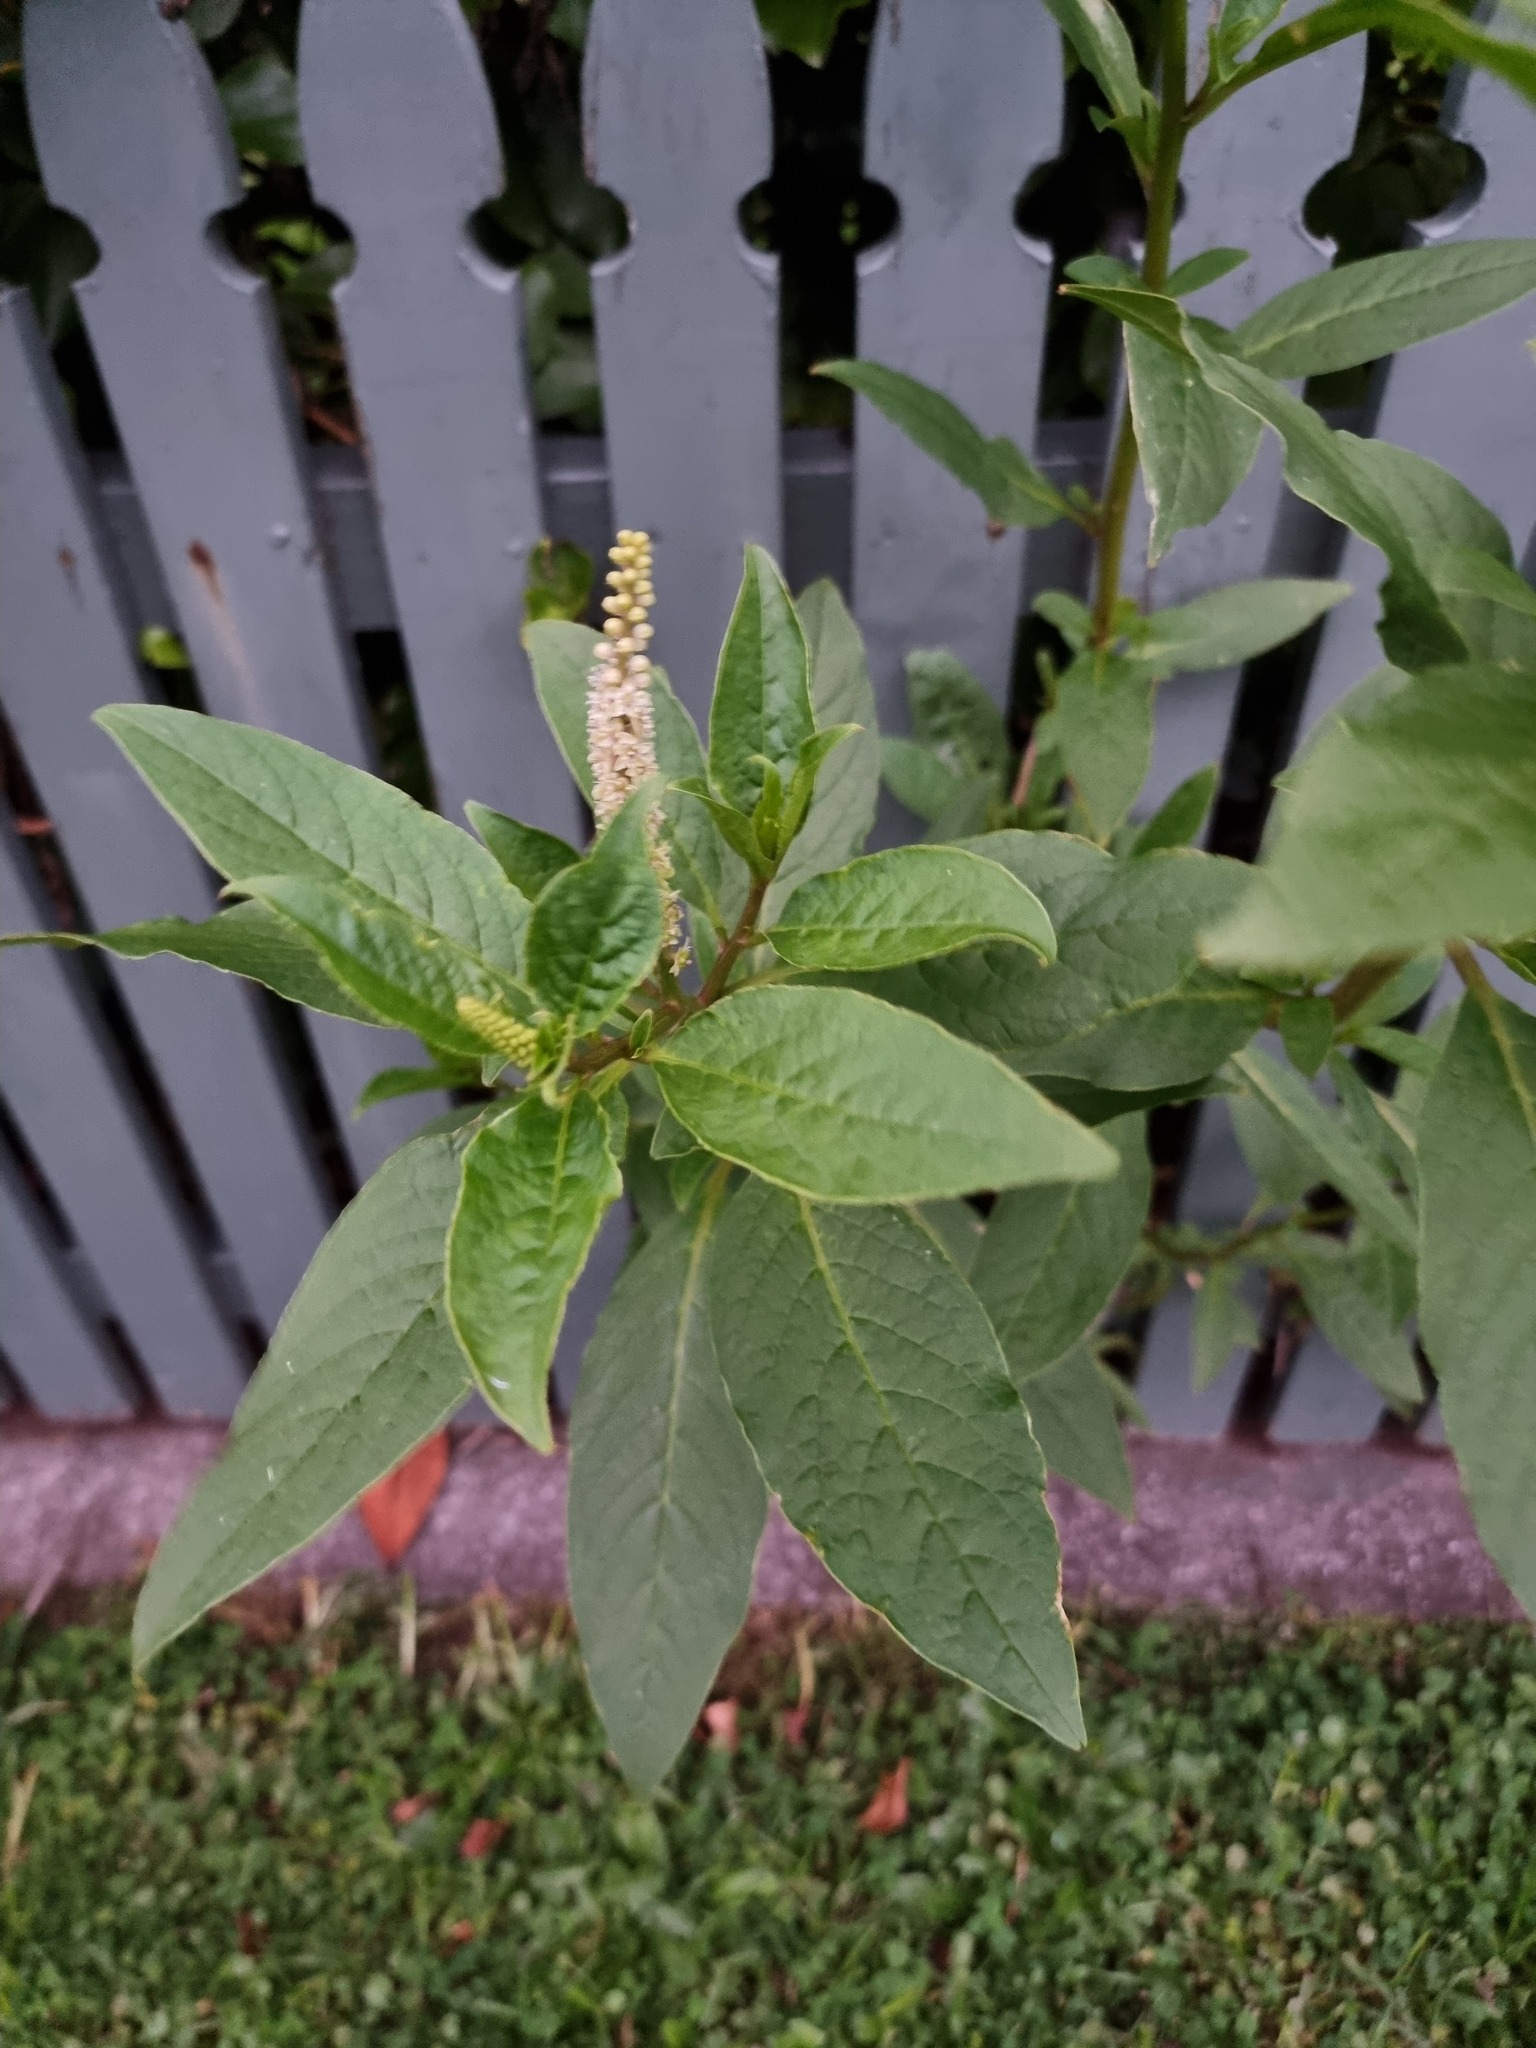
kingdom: Plantae
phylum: Tracheophyta
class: Magnoliopsida
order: Caryophyllales
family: Phytolaccaceae
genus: Phytolacca
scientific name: Phytolacca icosandra
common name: Button pokeweed
